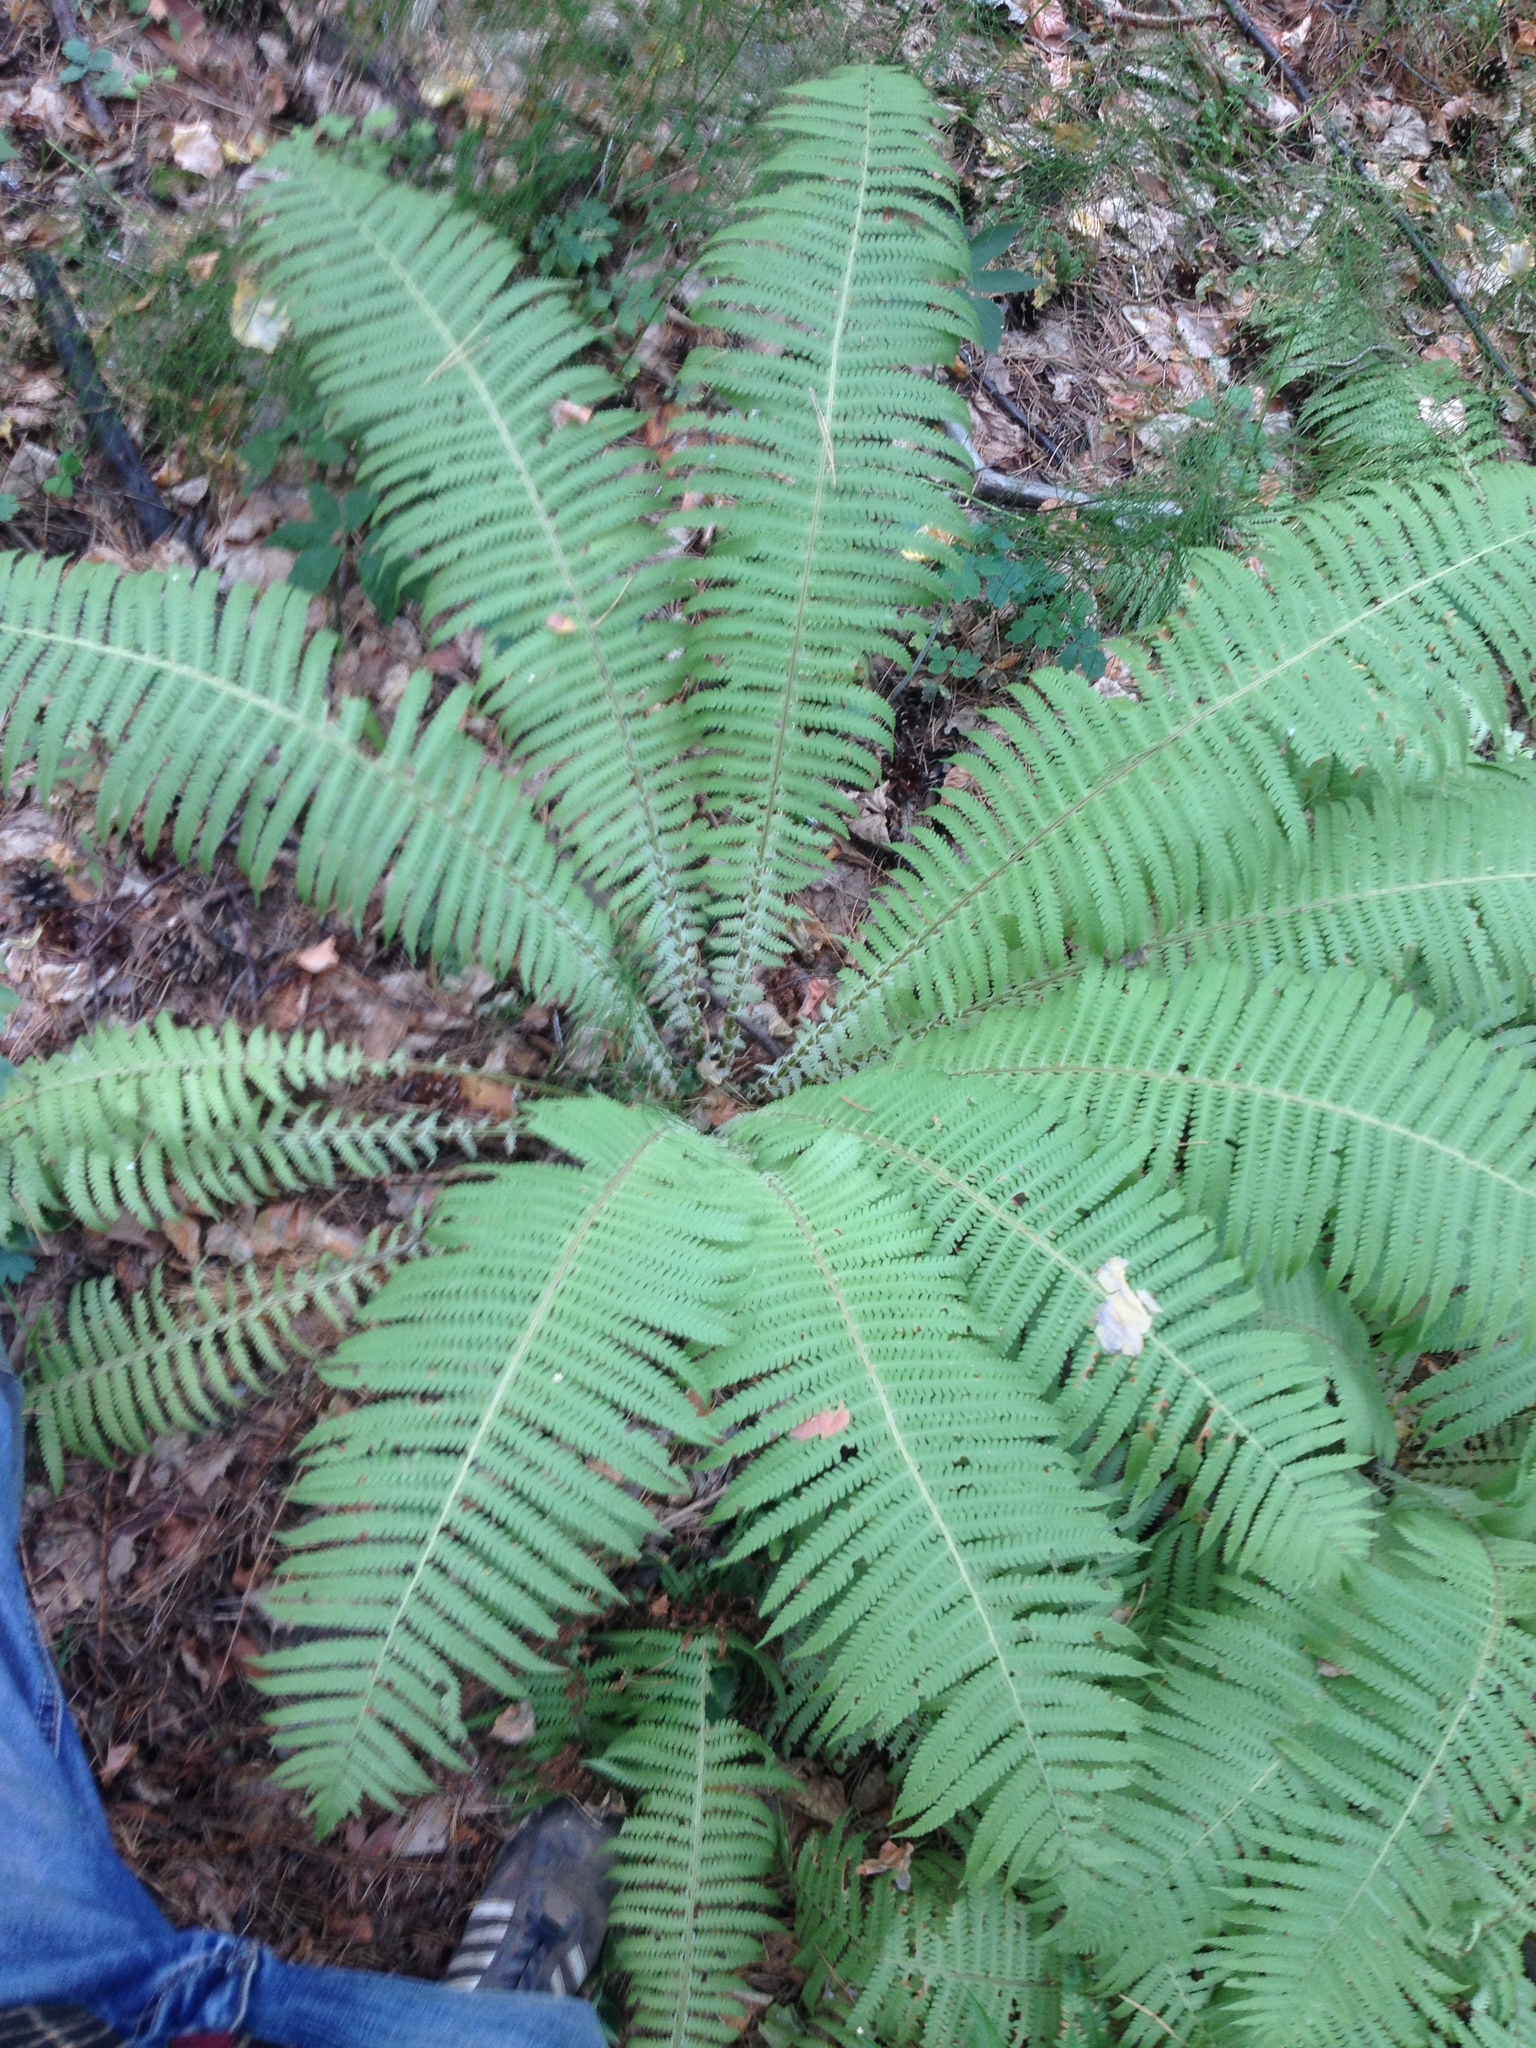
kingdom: Plantae
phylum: Tracheophyta
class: Polypodiopsida
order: Polypodiales
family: Onocleaceae
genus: Matteuccia
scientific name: Matteuccia struthiopteris
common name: Ostrich fern
